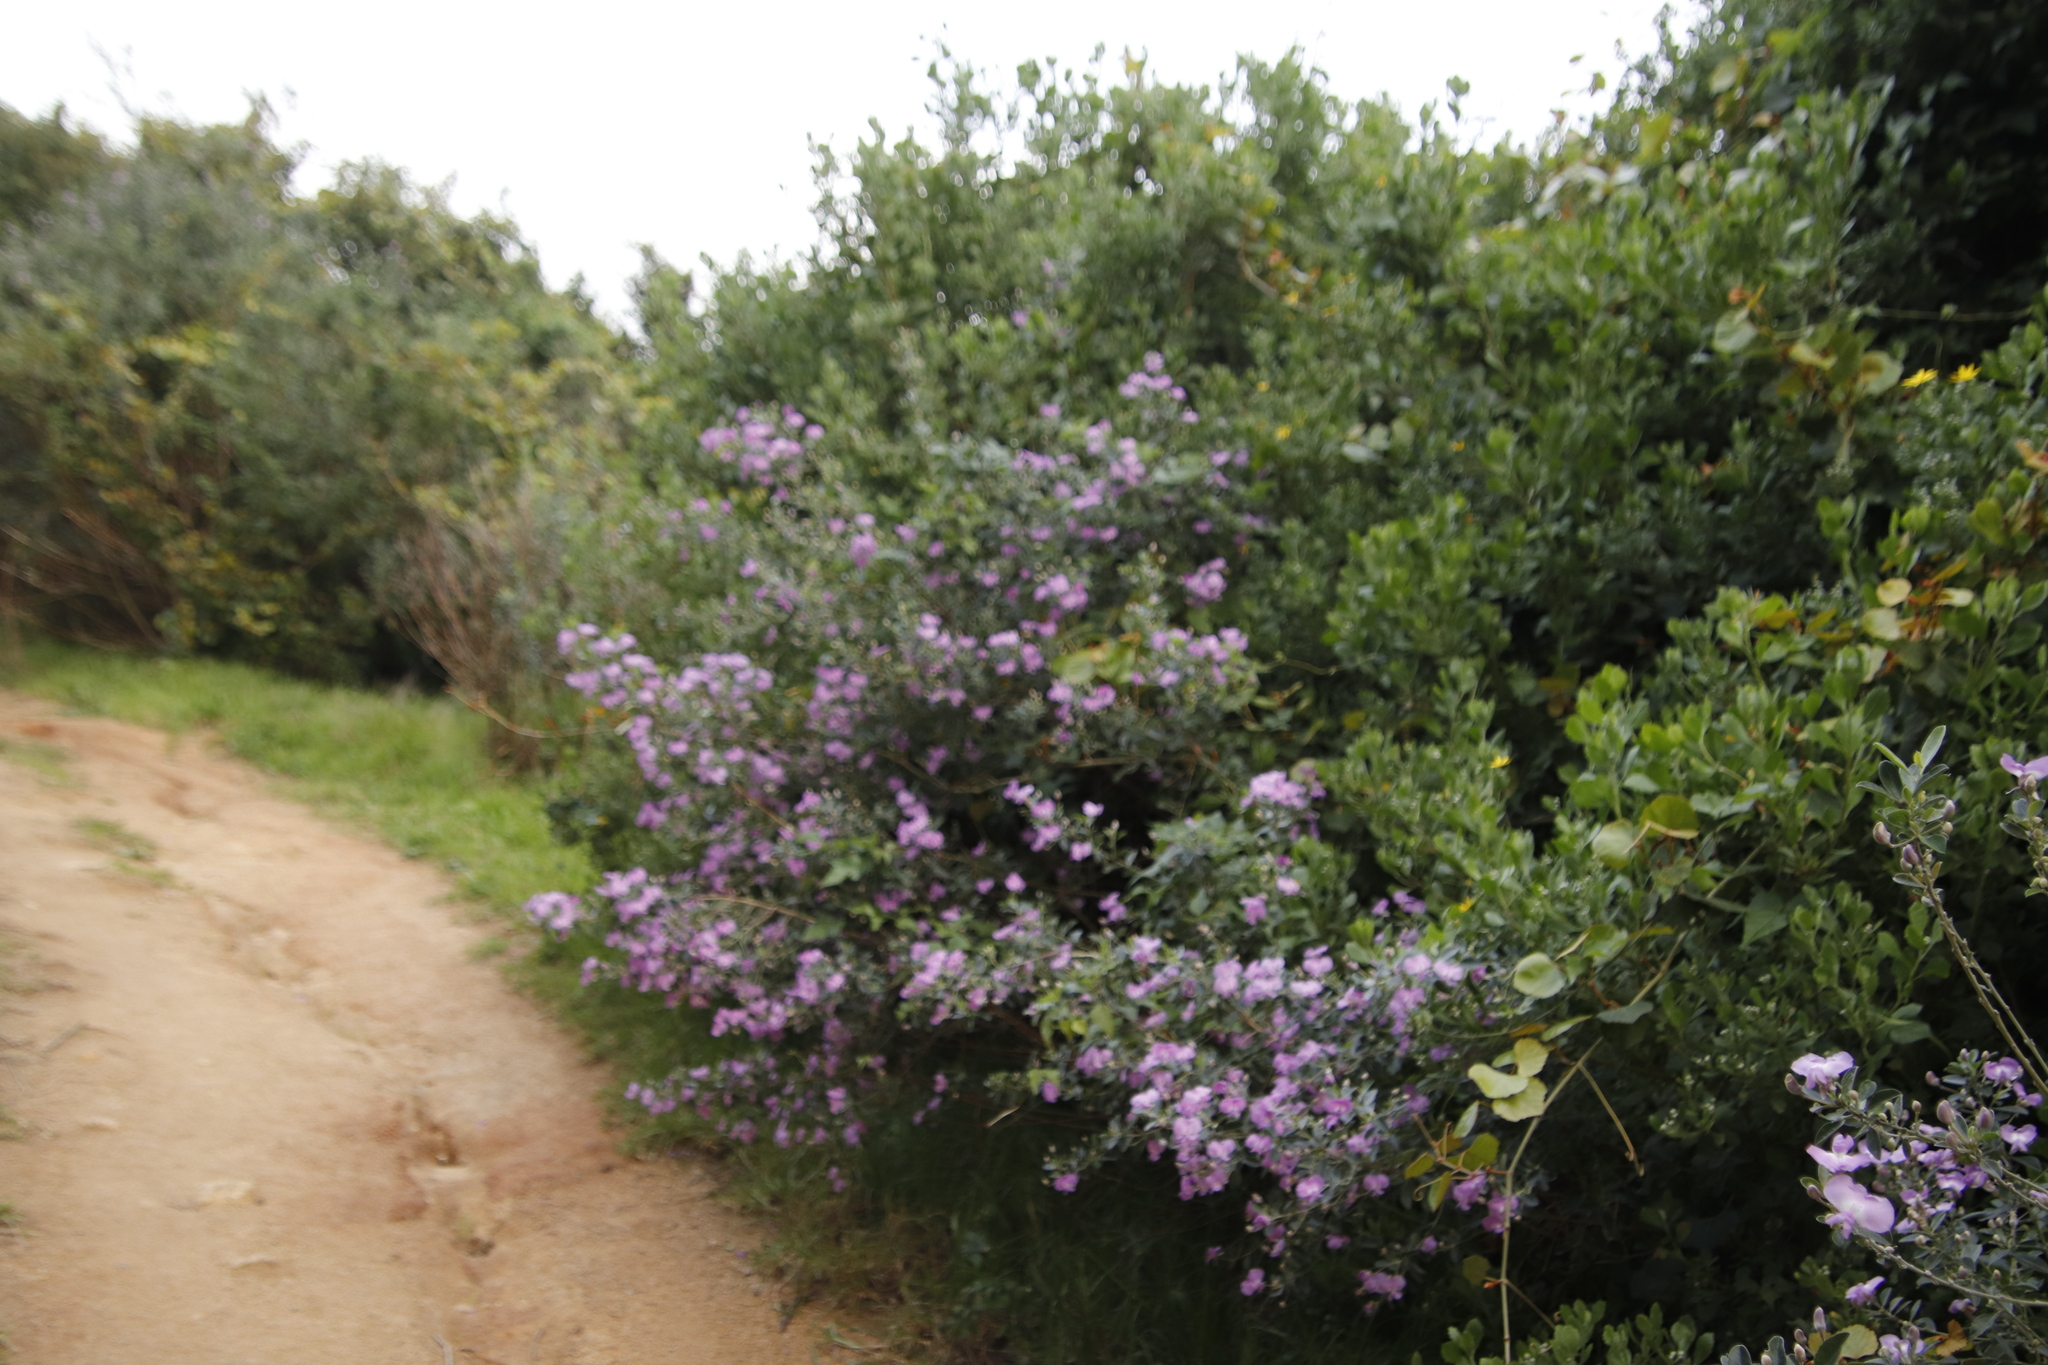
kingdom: Plantae
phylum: Tracheophyta
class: Magnoliopsida
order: Fabales
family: Fabaceae
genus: Podalyria
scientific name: Podalyria calyptrata
